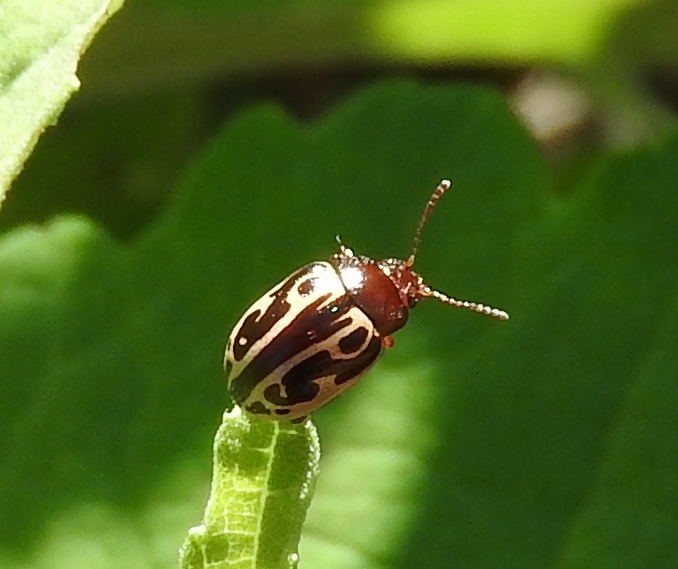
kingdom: Animalia
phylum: Arthropoda
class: Insecta
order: Coleoptera
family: Chrysomelidae
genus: Calligrapha
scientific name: Calligrapha
